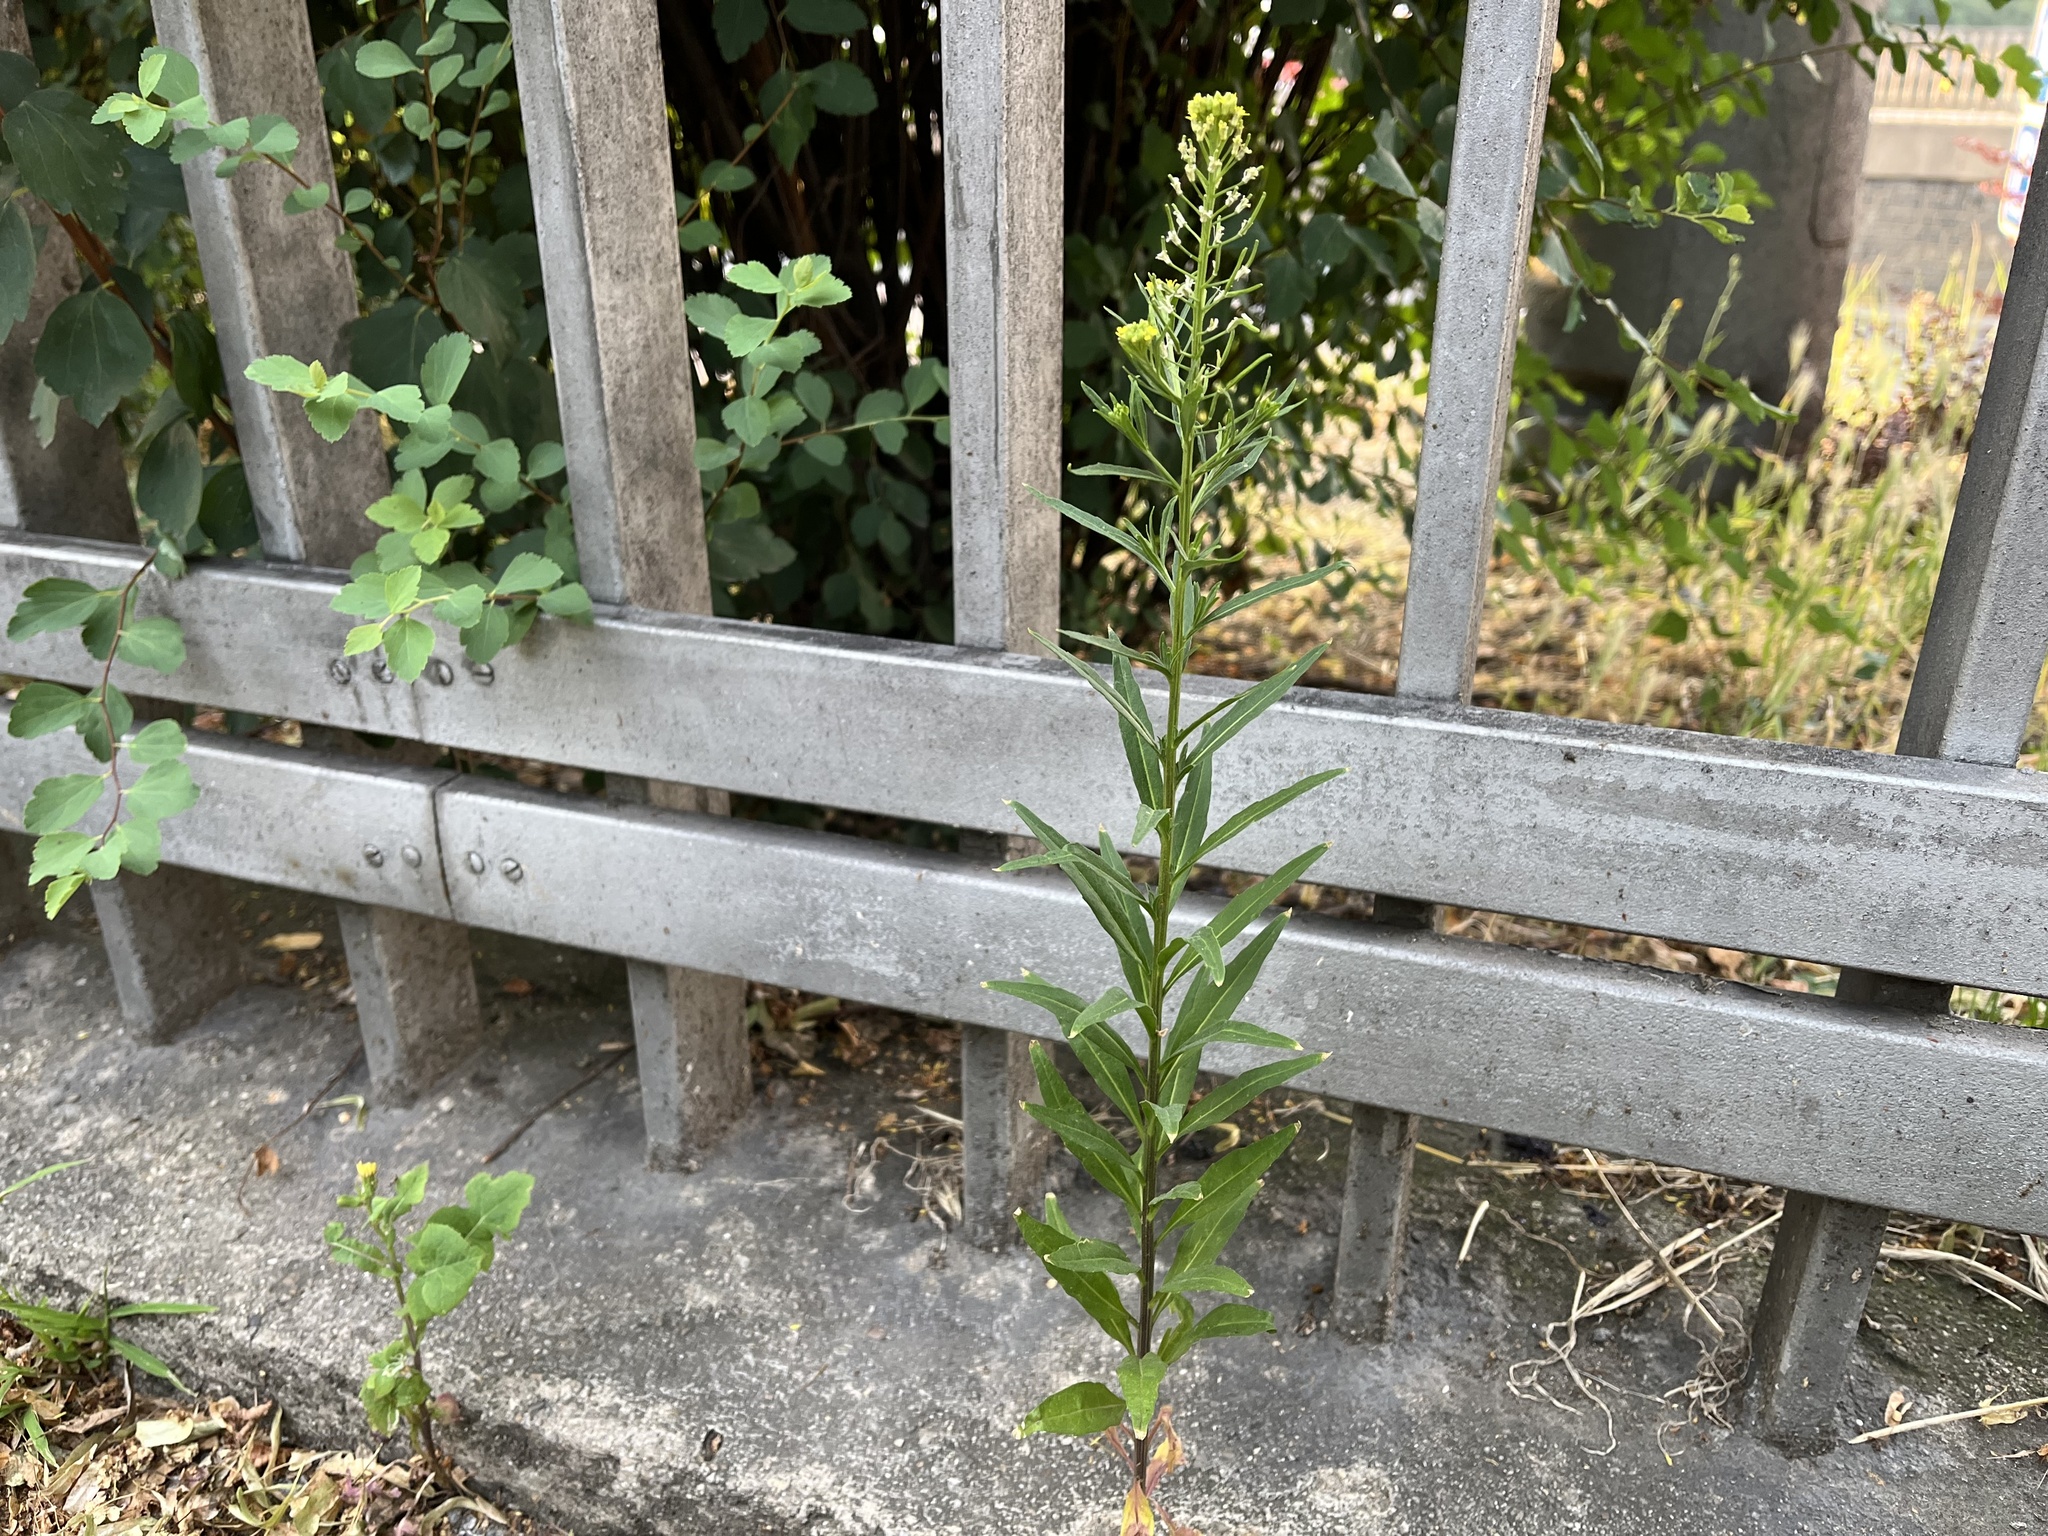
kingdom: Plantae
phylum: Tracheophyta
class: Magnoliopsida
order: Brassicales
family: Brassicaceae
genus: Erysimum
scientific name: Erysimum cheiranthoides
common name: Treacle mustard
